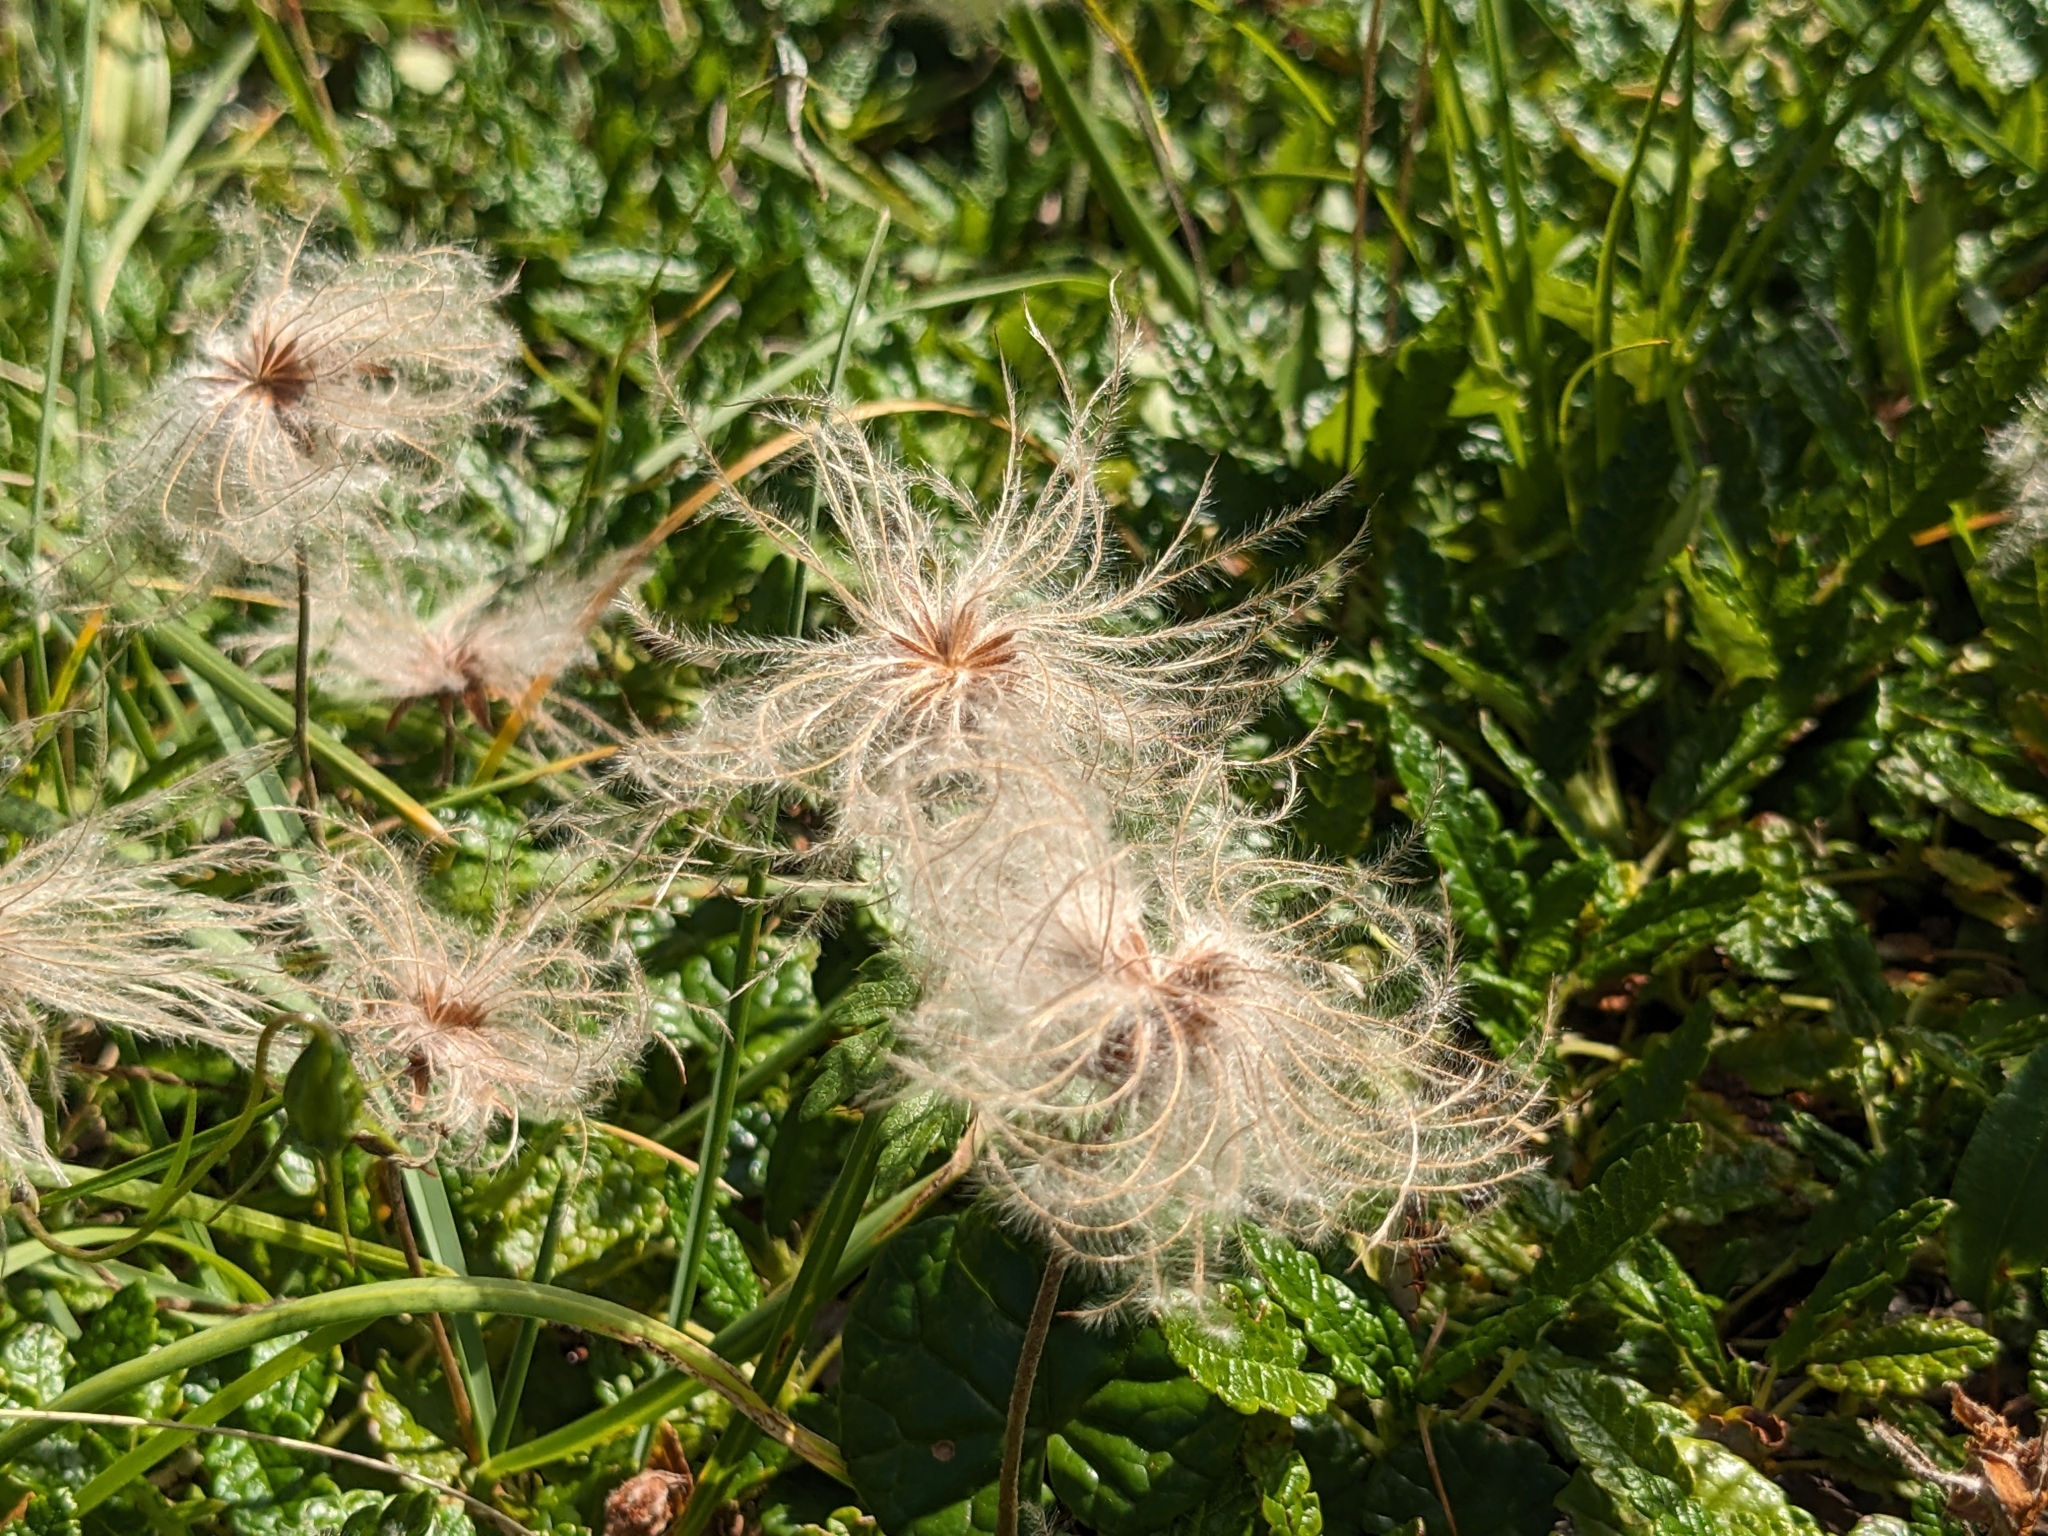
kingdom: Plantae
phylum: Tracheophyta
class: Magnoliopsida
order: Rosales
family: Rosaceae
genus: Dryas
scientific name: Dryas octopetala
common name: Eight-petal mountain-avens
